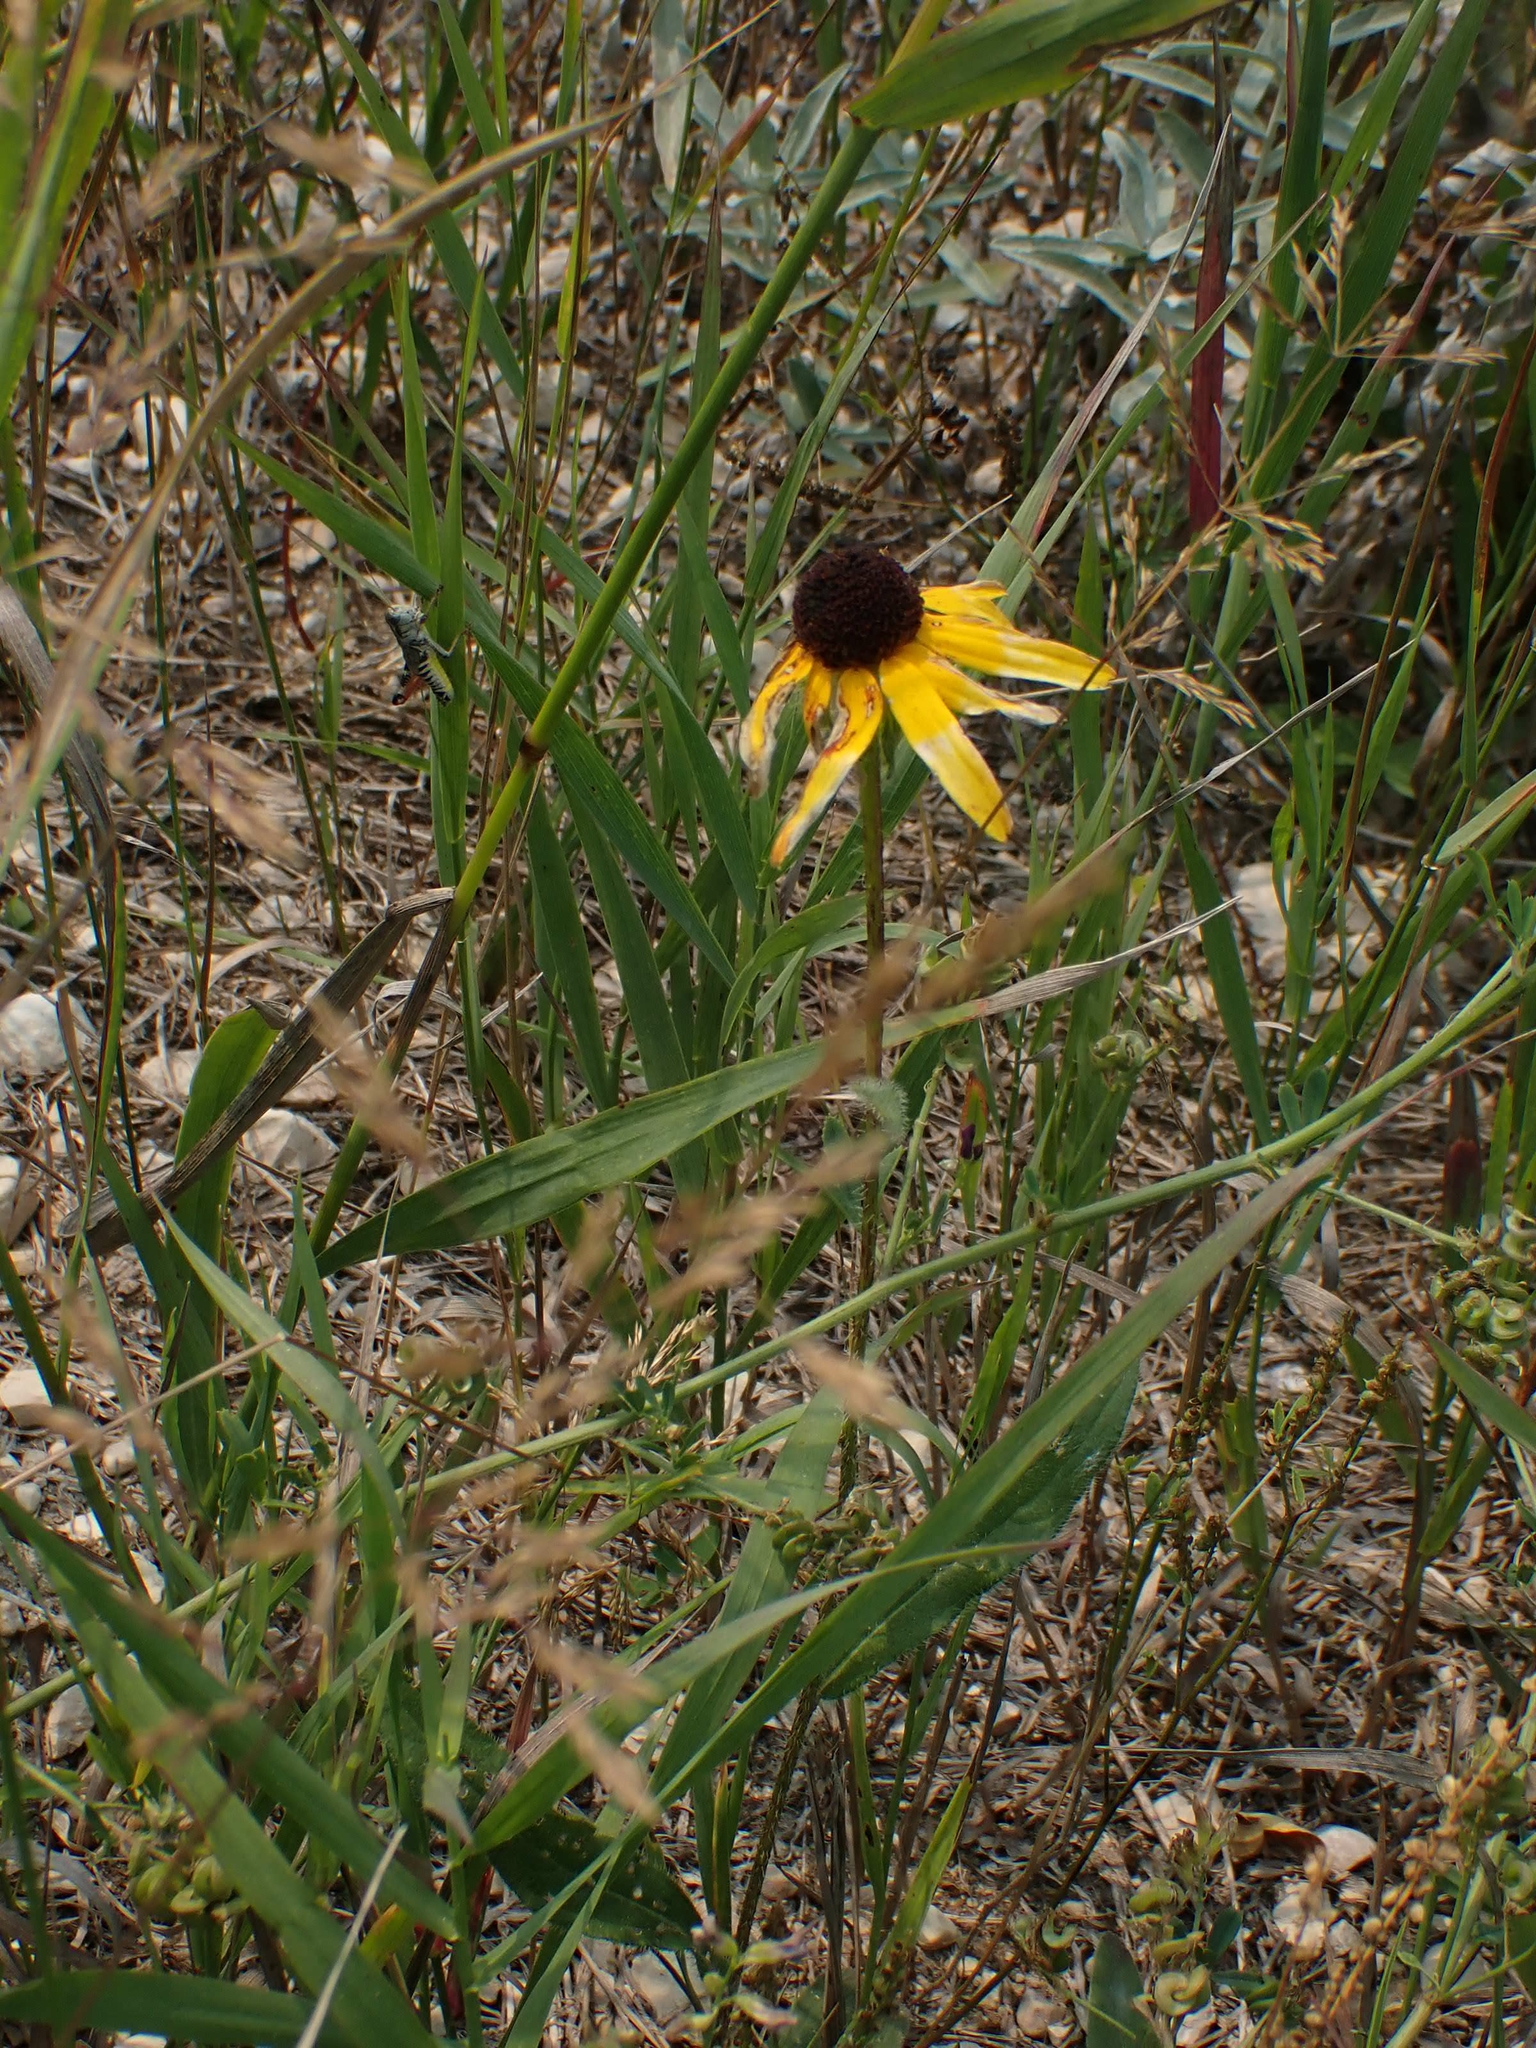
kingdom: Plantae
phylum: Tracheophyta
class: Magnoliopsida
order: Asterales
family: Asteraceae
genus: Rudbeckia
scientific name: Rudbeckia hirta
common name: Black-eyed-susan
